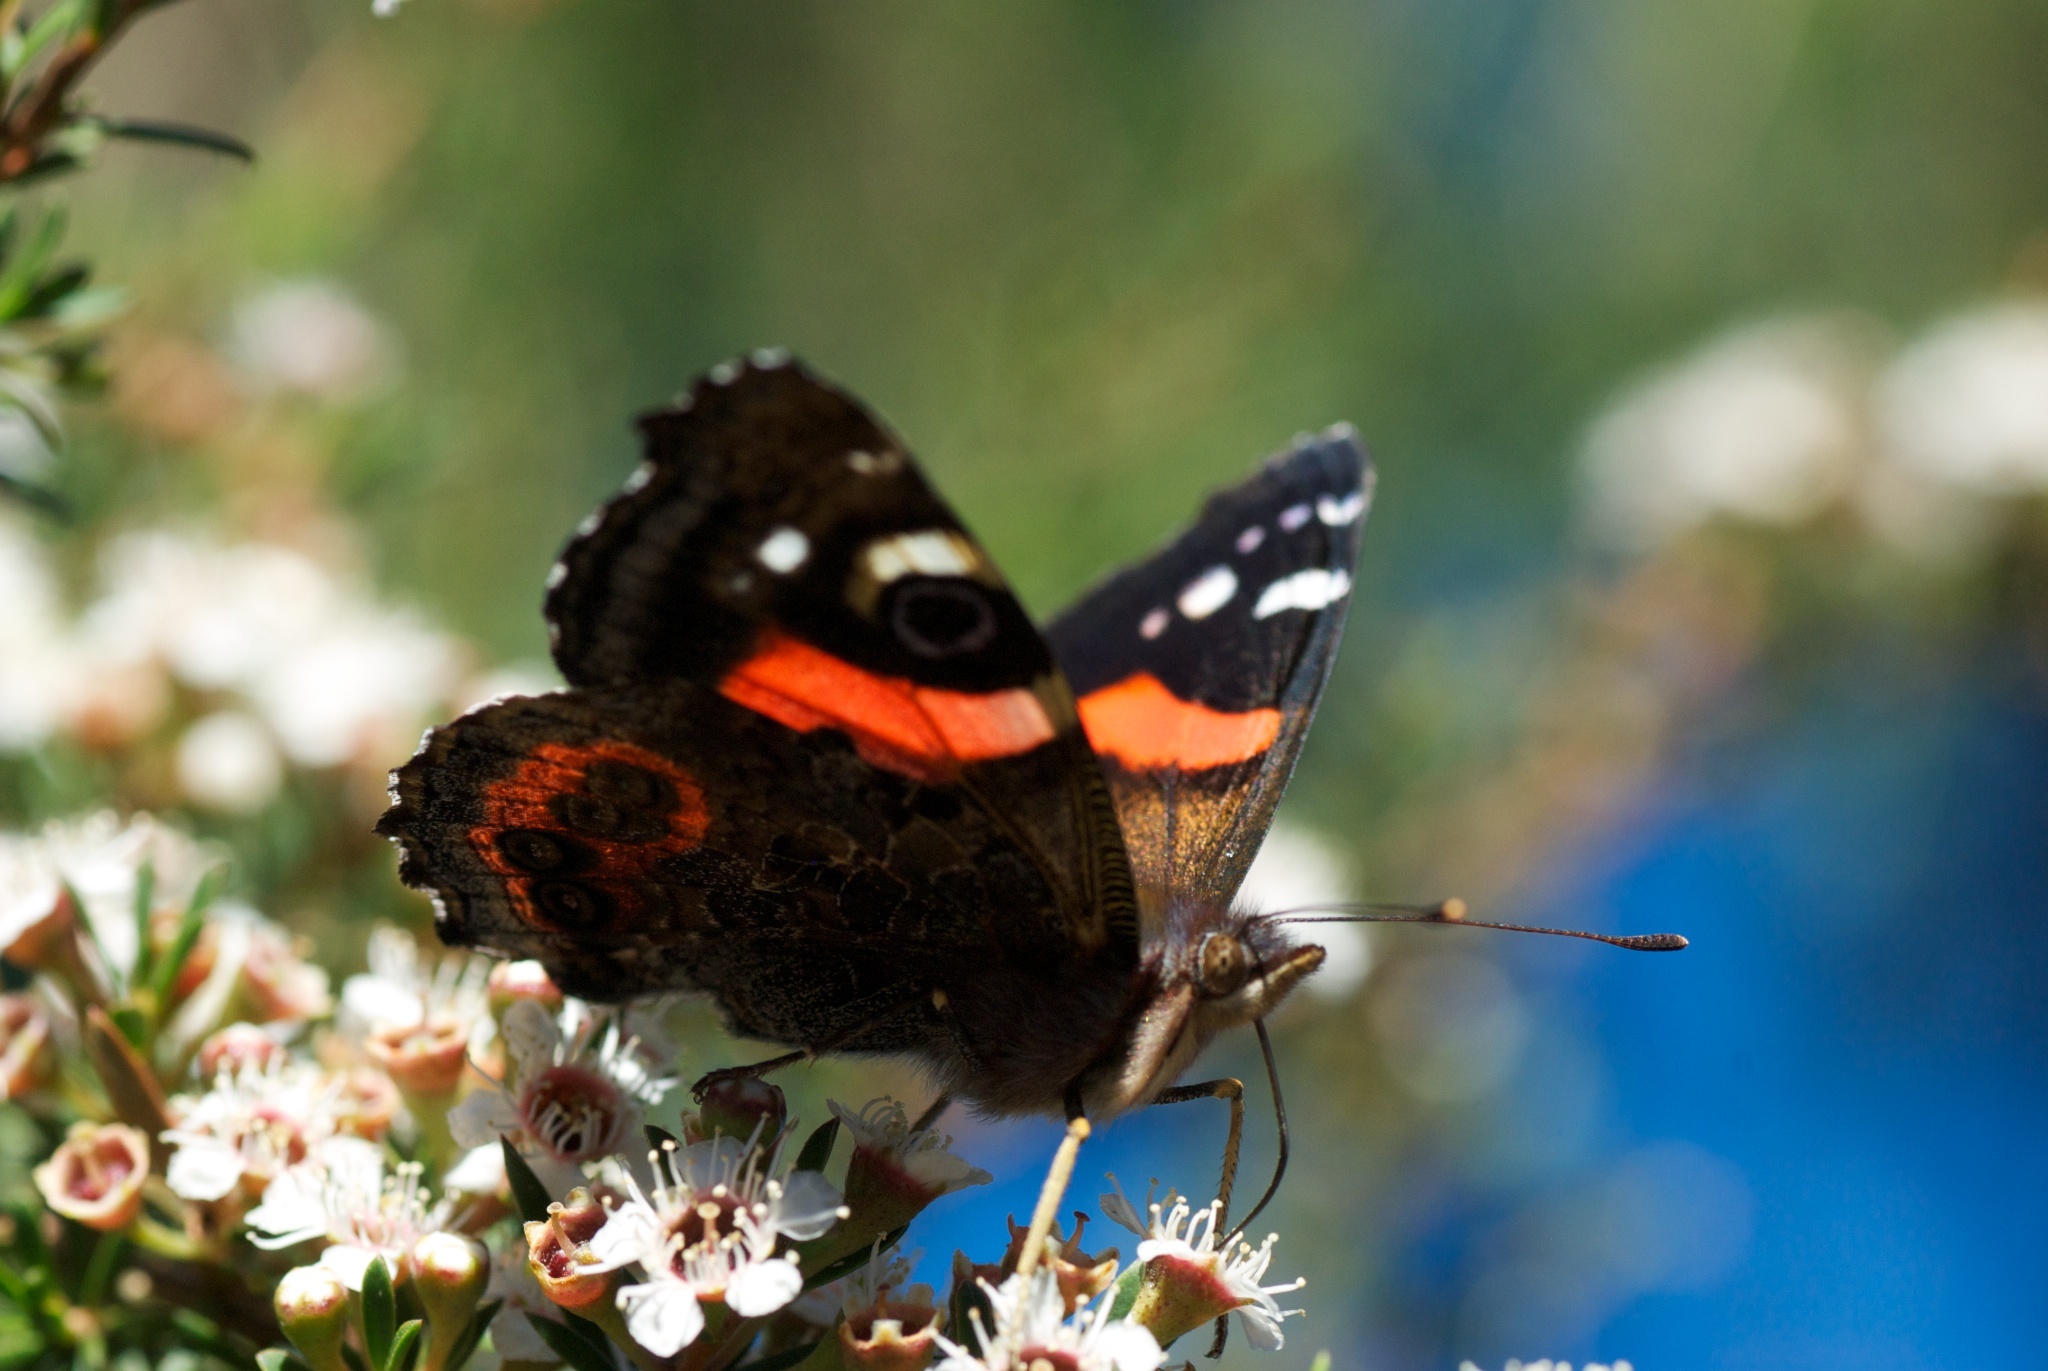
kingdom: Animalia
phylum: Arthropoda
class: Insecta
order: Lepidoptera
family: Nymphalidae
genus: Vanessa
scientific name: Vanessa gonerilla
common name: New zealand red admiral
